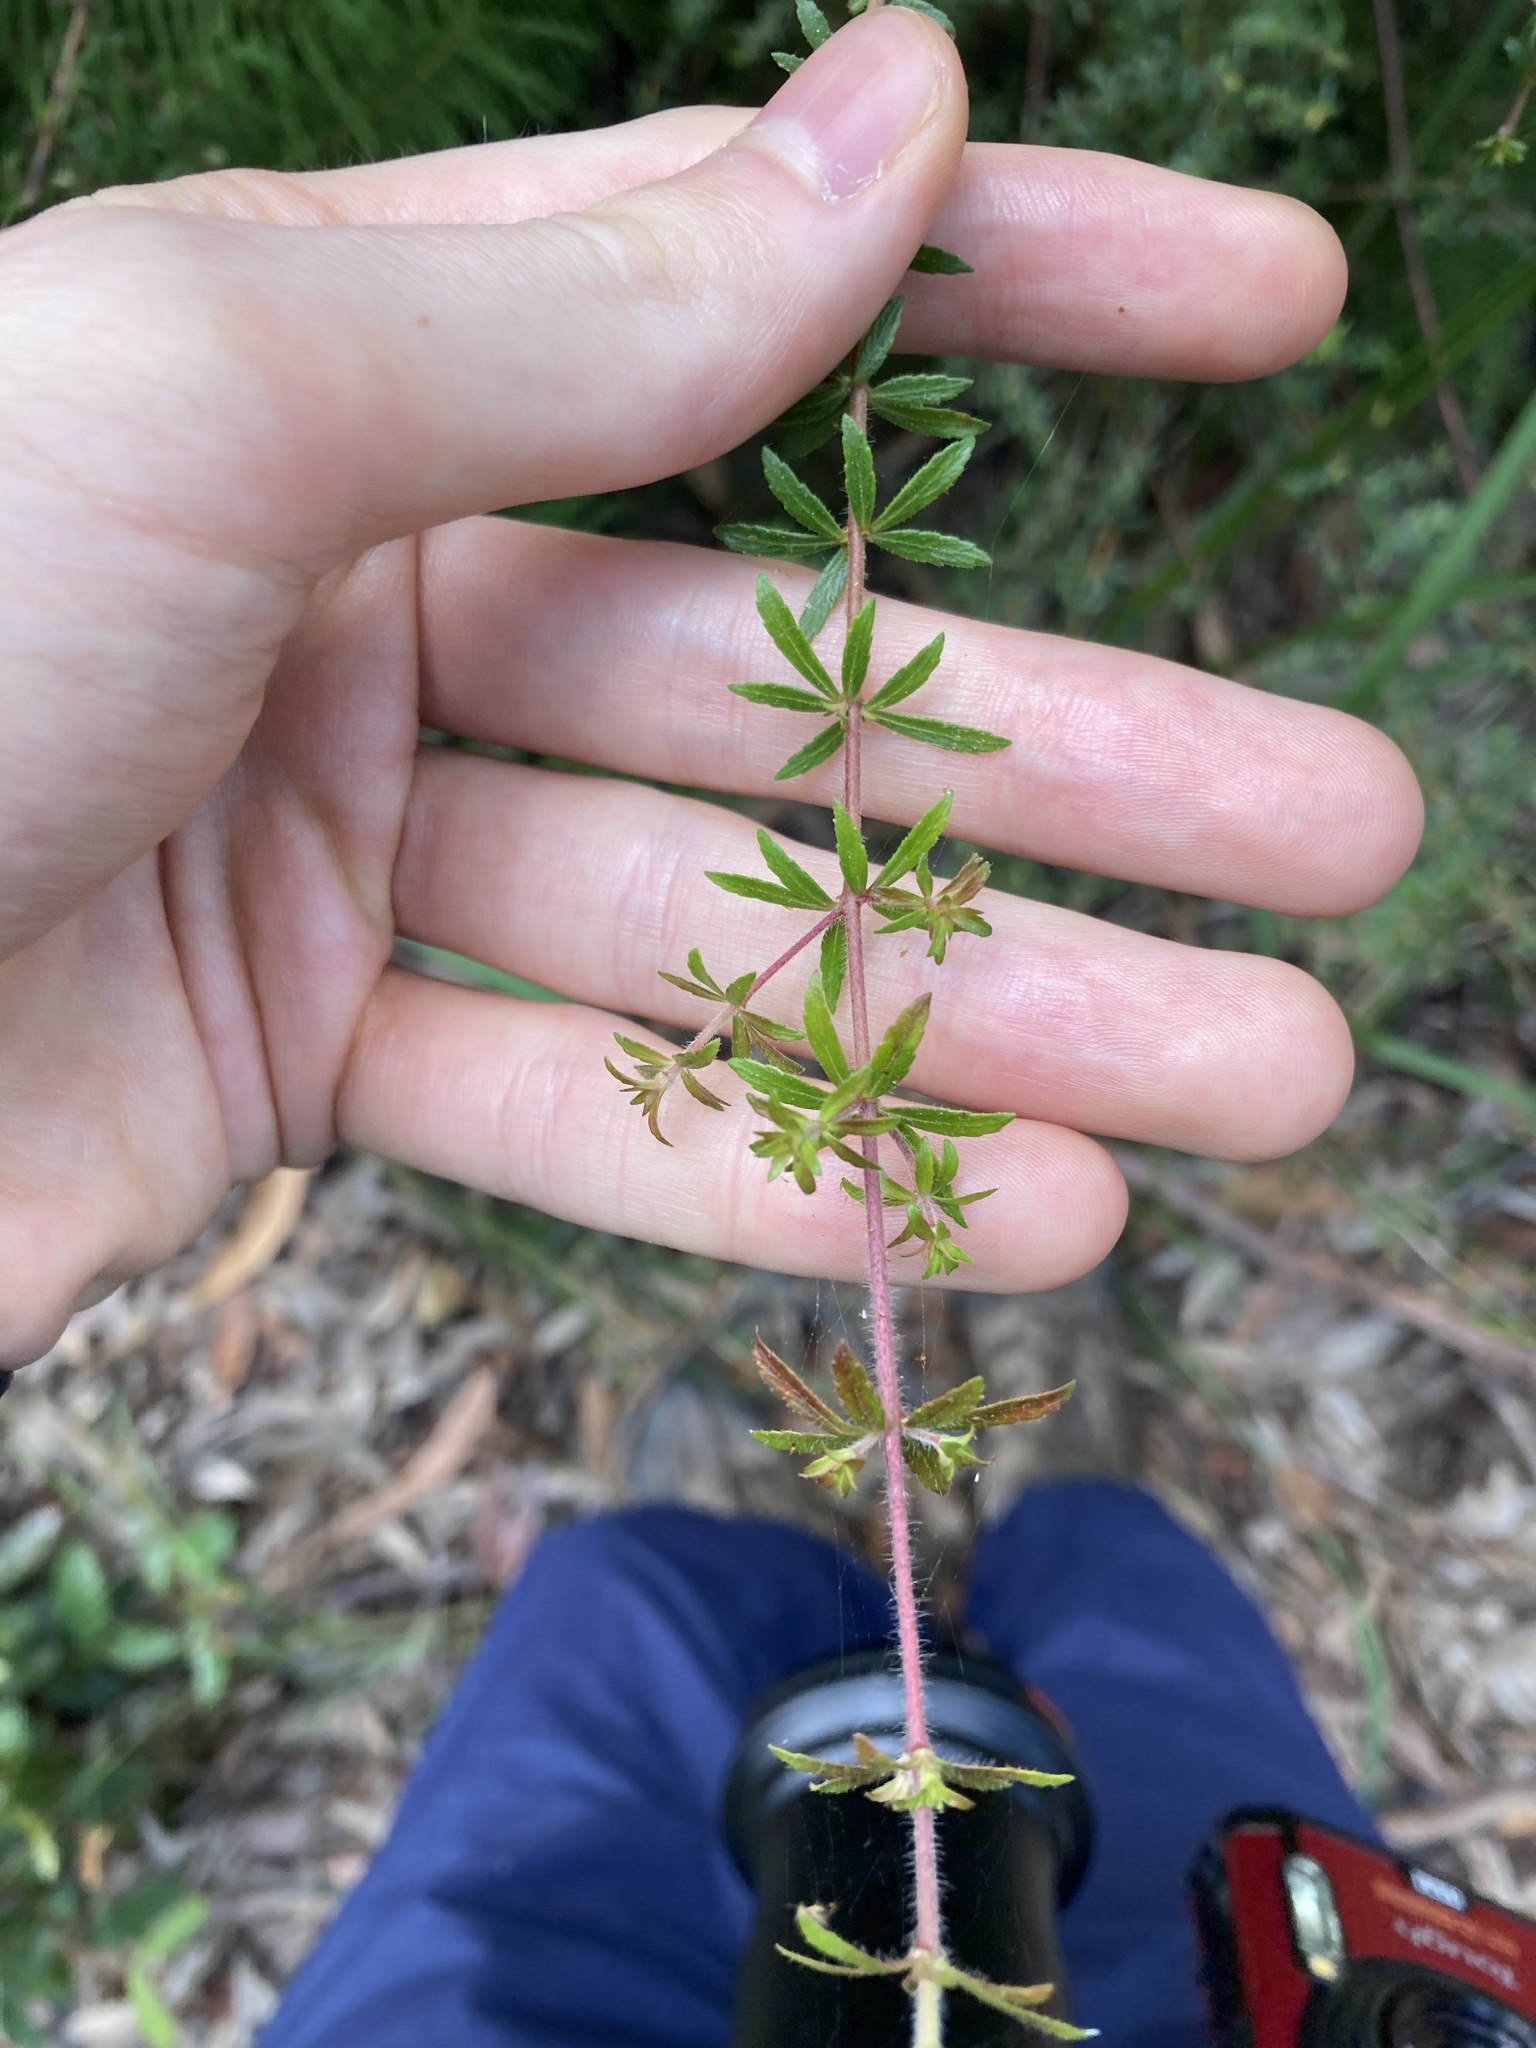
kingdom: Plantae
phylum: Tracheophyta
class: Magnoliopsida
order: Oxalidales
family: Cunoniaceae
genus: Bauera
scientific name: Bauera rubioides
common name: River-rose
